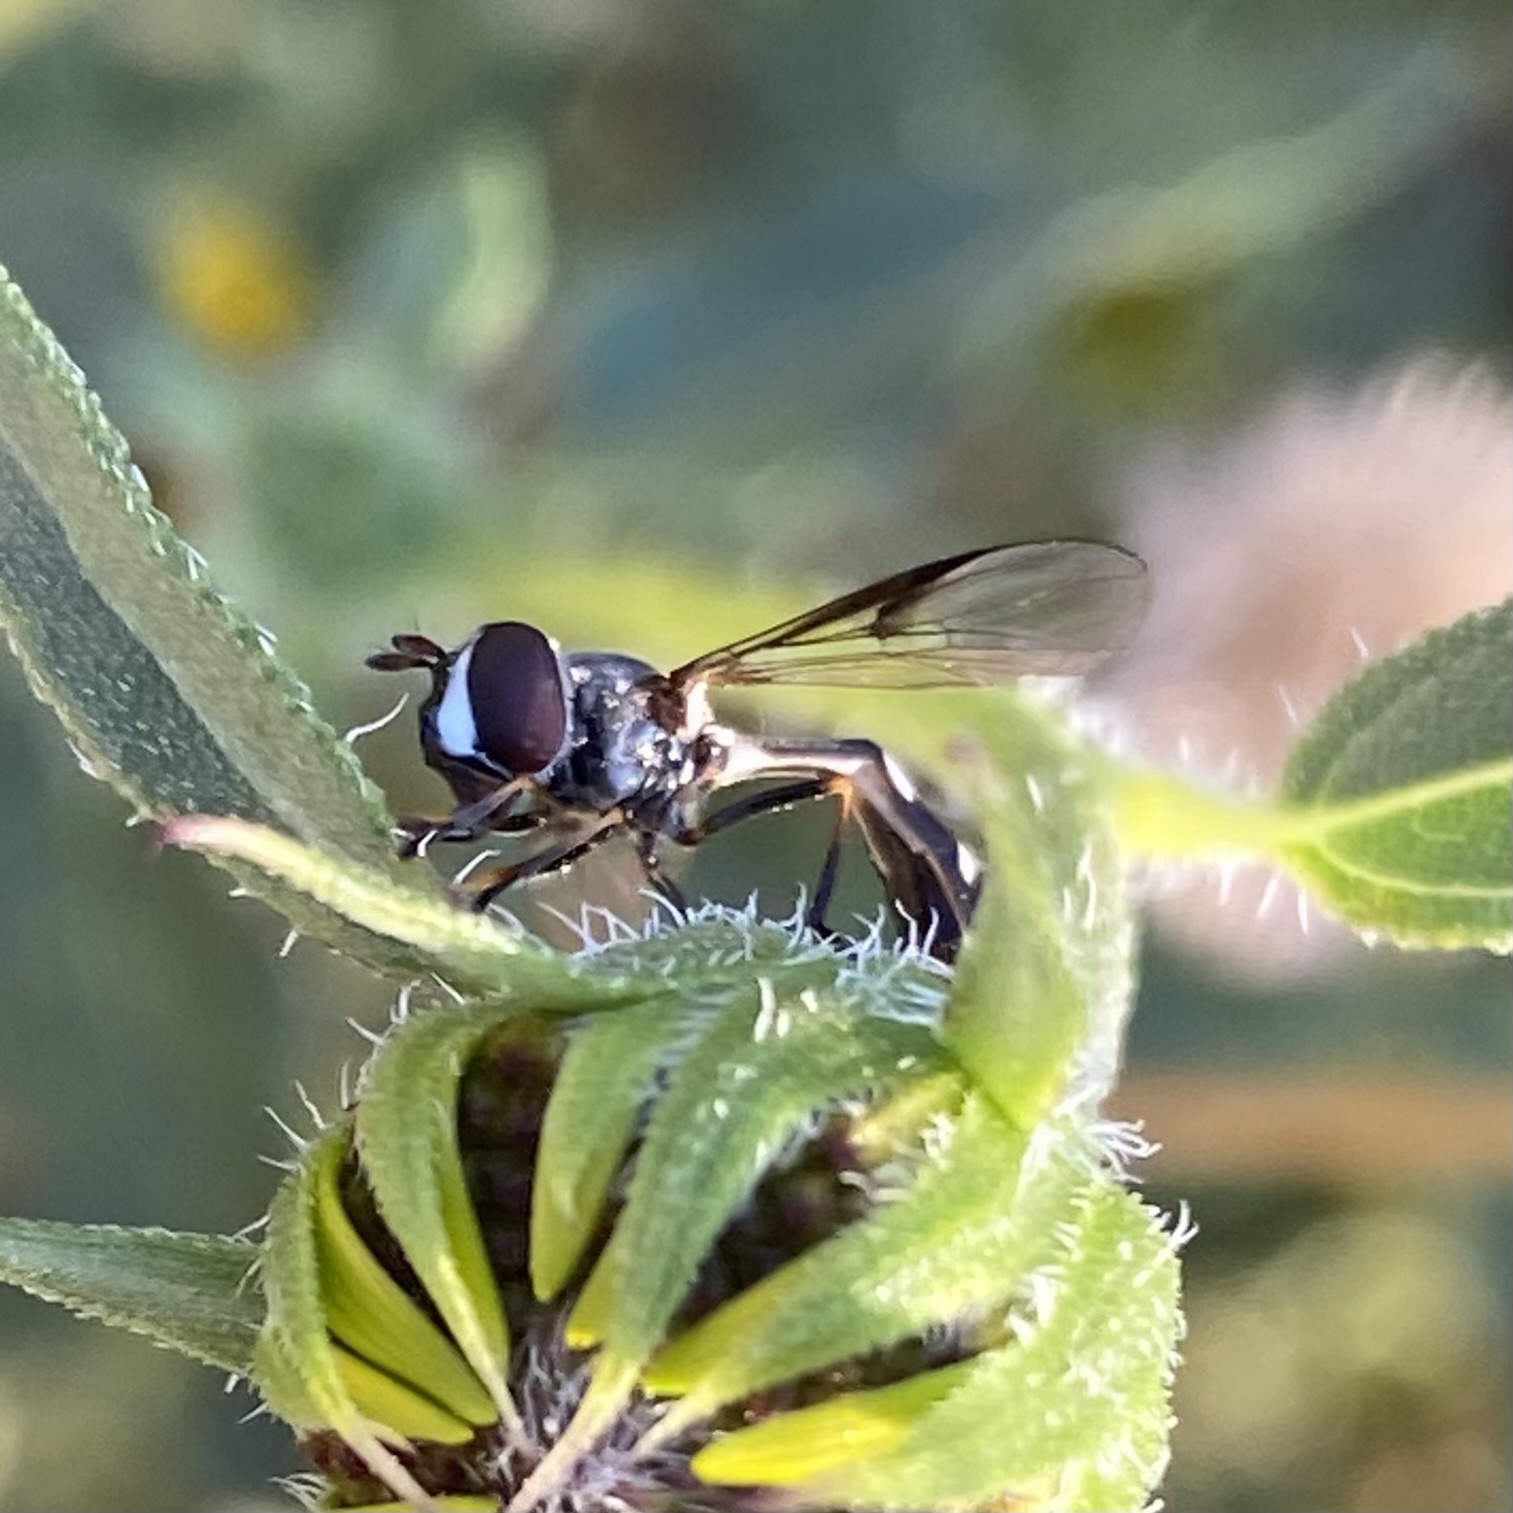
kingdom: Animalia
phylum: Arthropoda
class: Insecta
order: Diptera
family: Syrphidae
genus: Dioprosopa
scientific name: Dioprosopa clavatus
